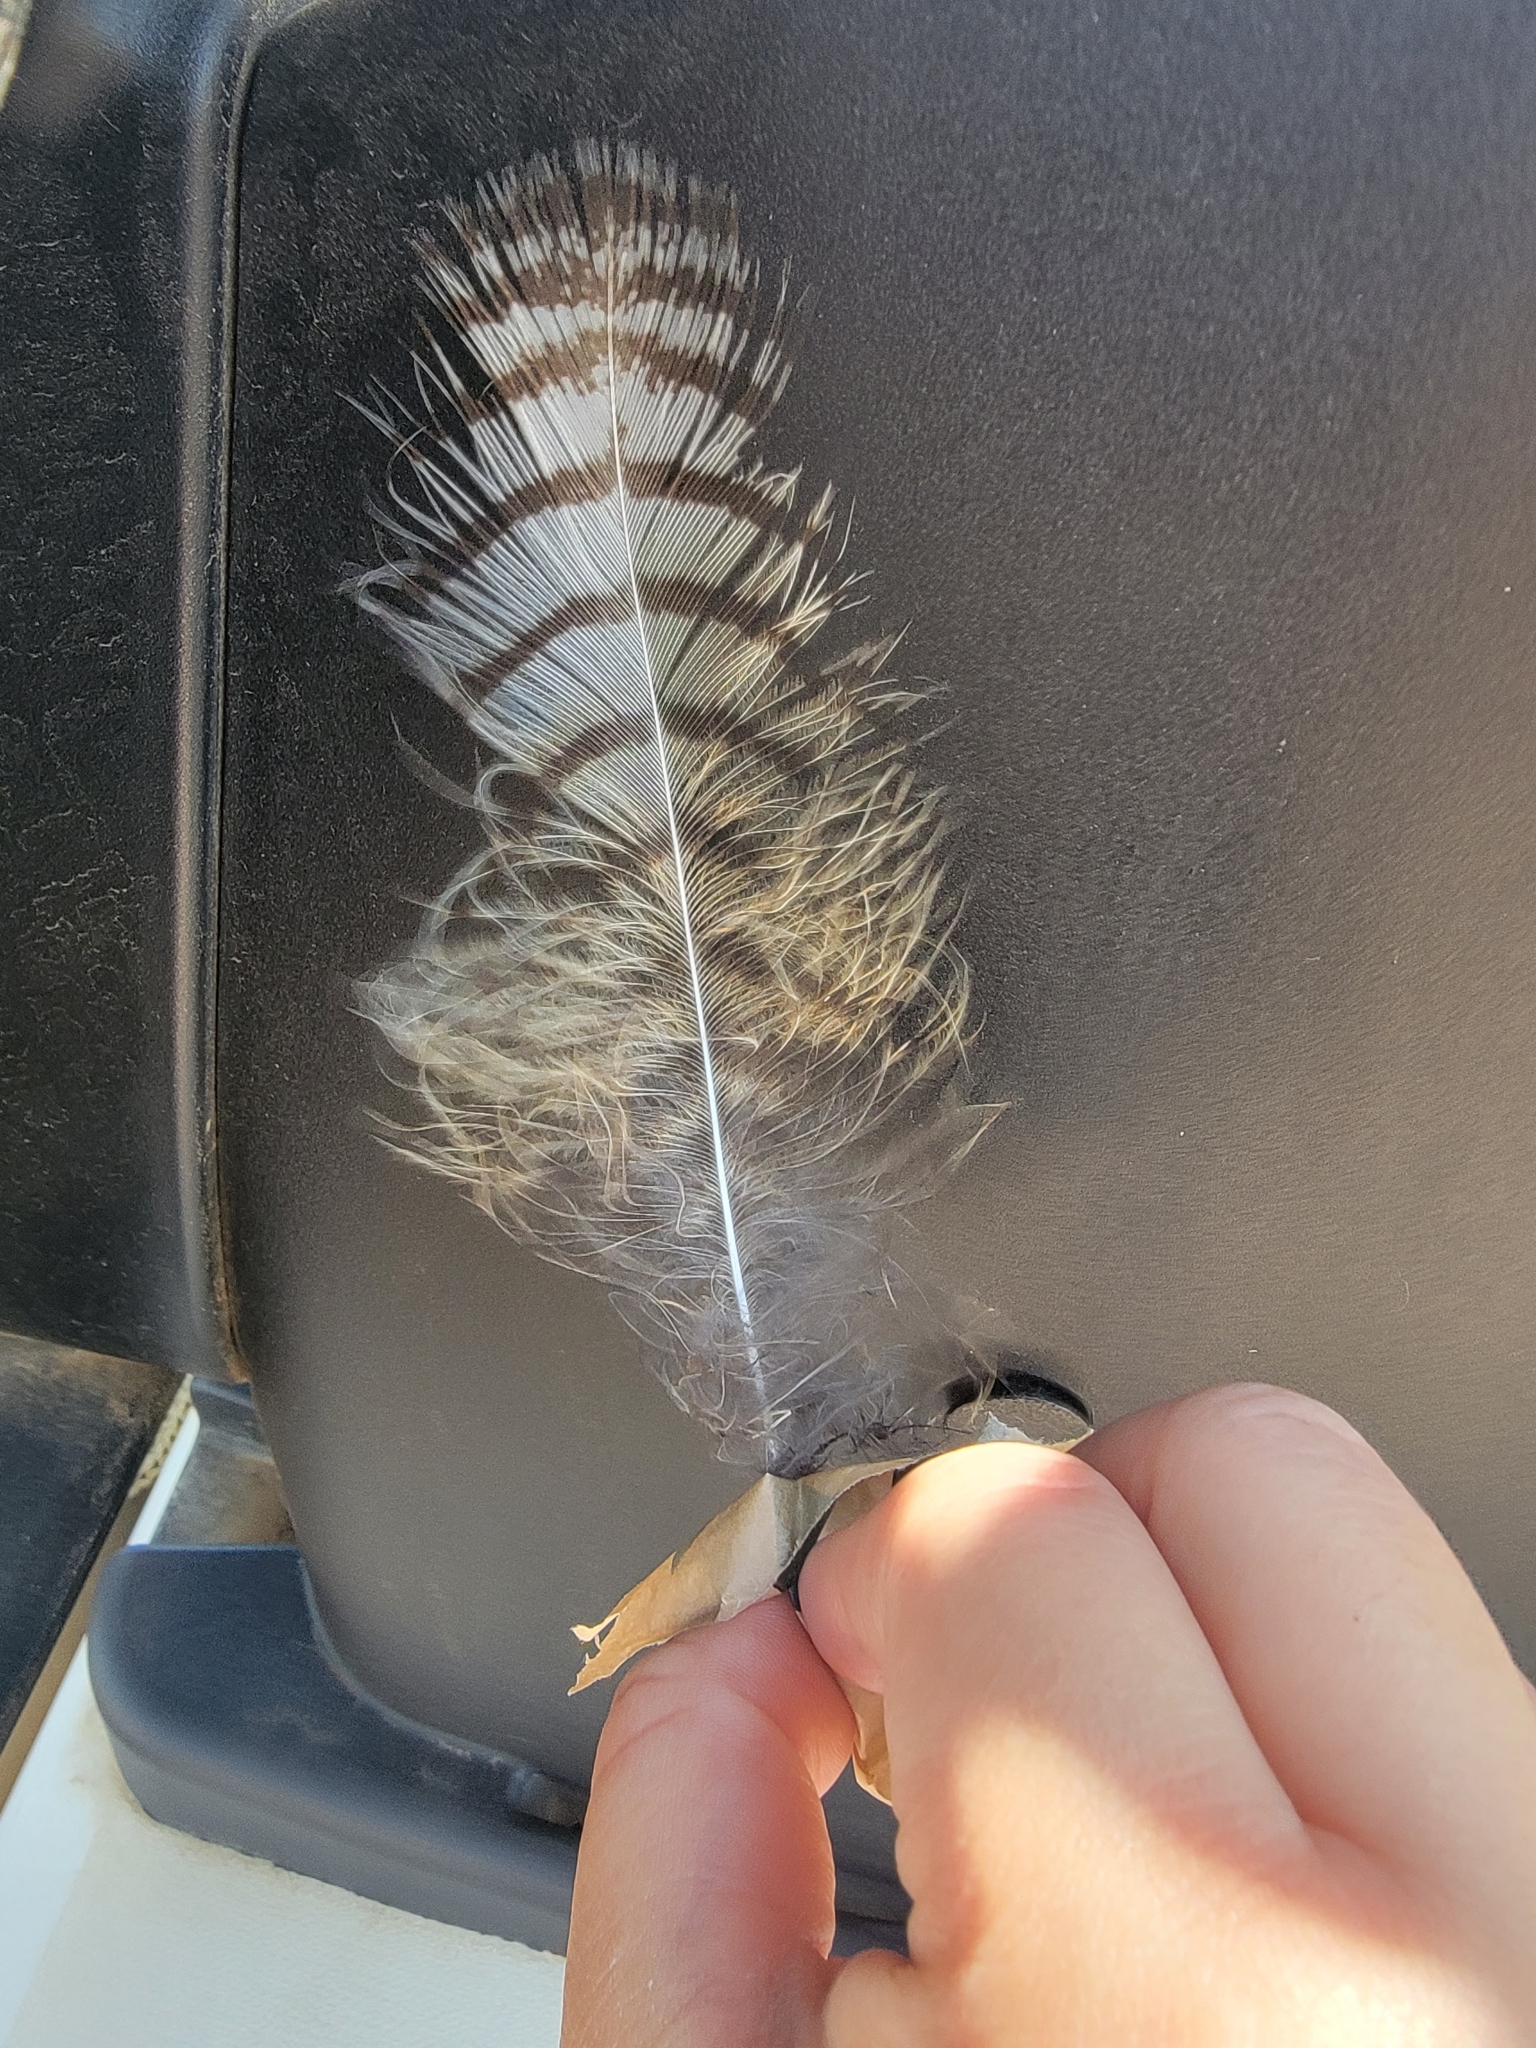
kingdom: Animalia
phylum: Chordata
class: Aves
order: Strigiformes
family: Strigidae
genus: Bubo
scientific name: Bubo virginianus
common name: Great horned owl
